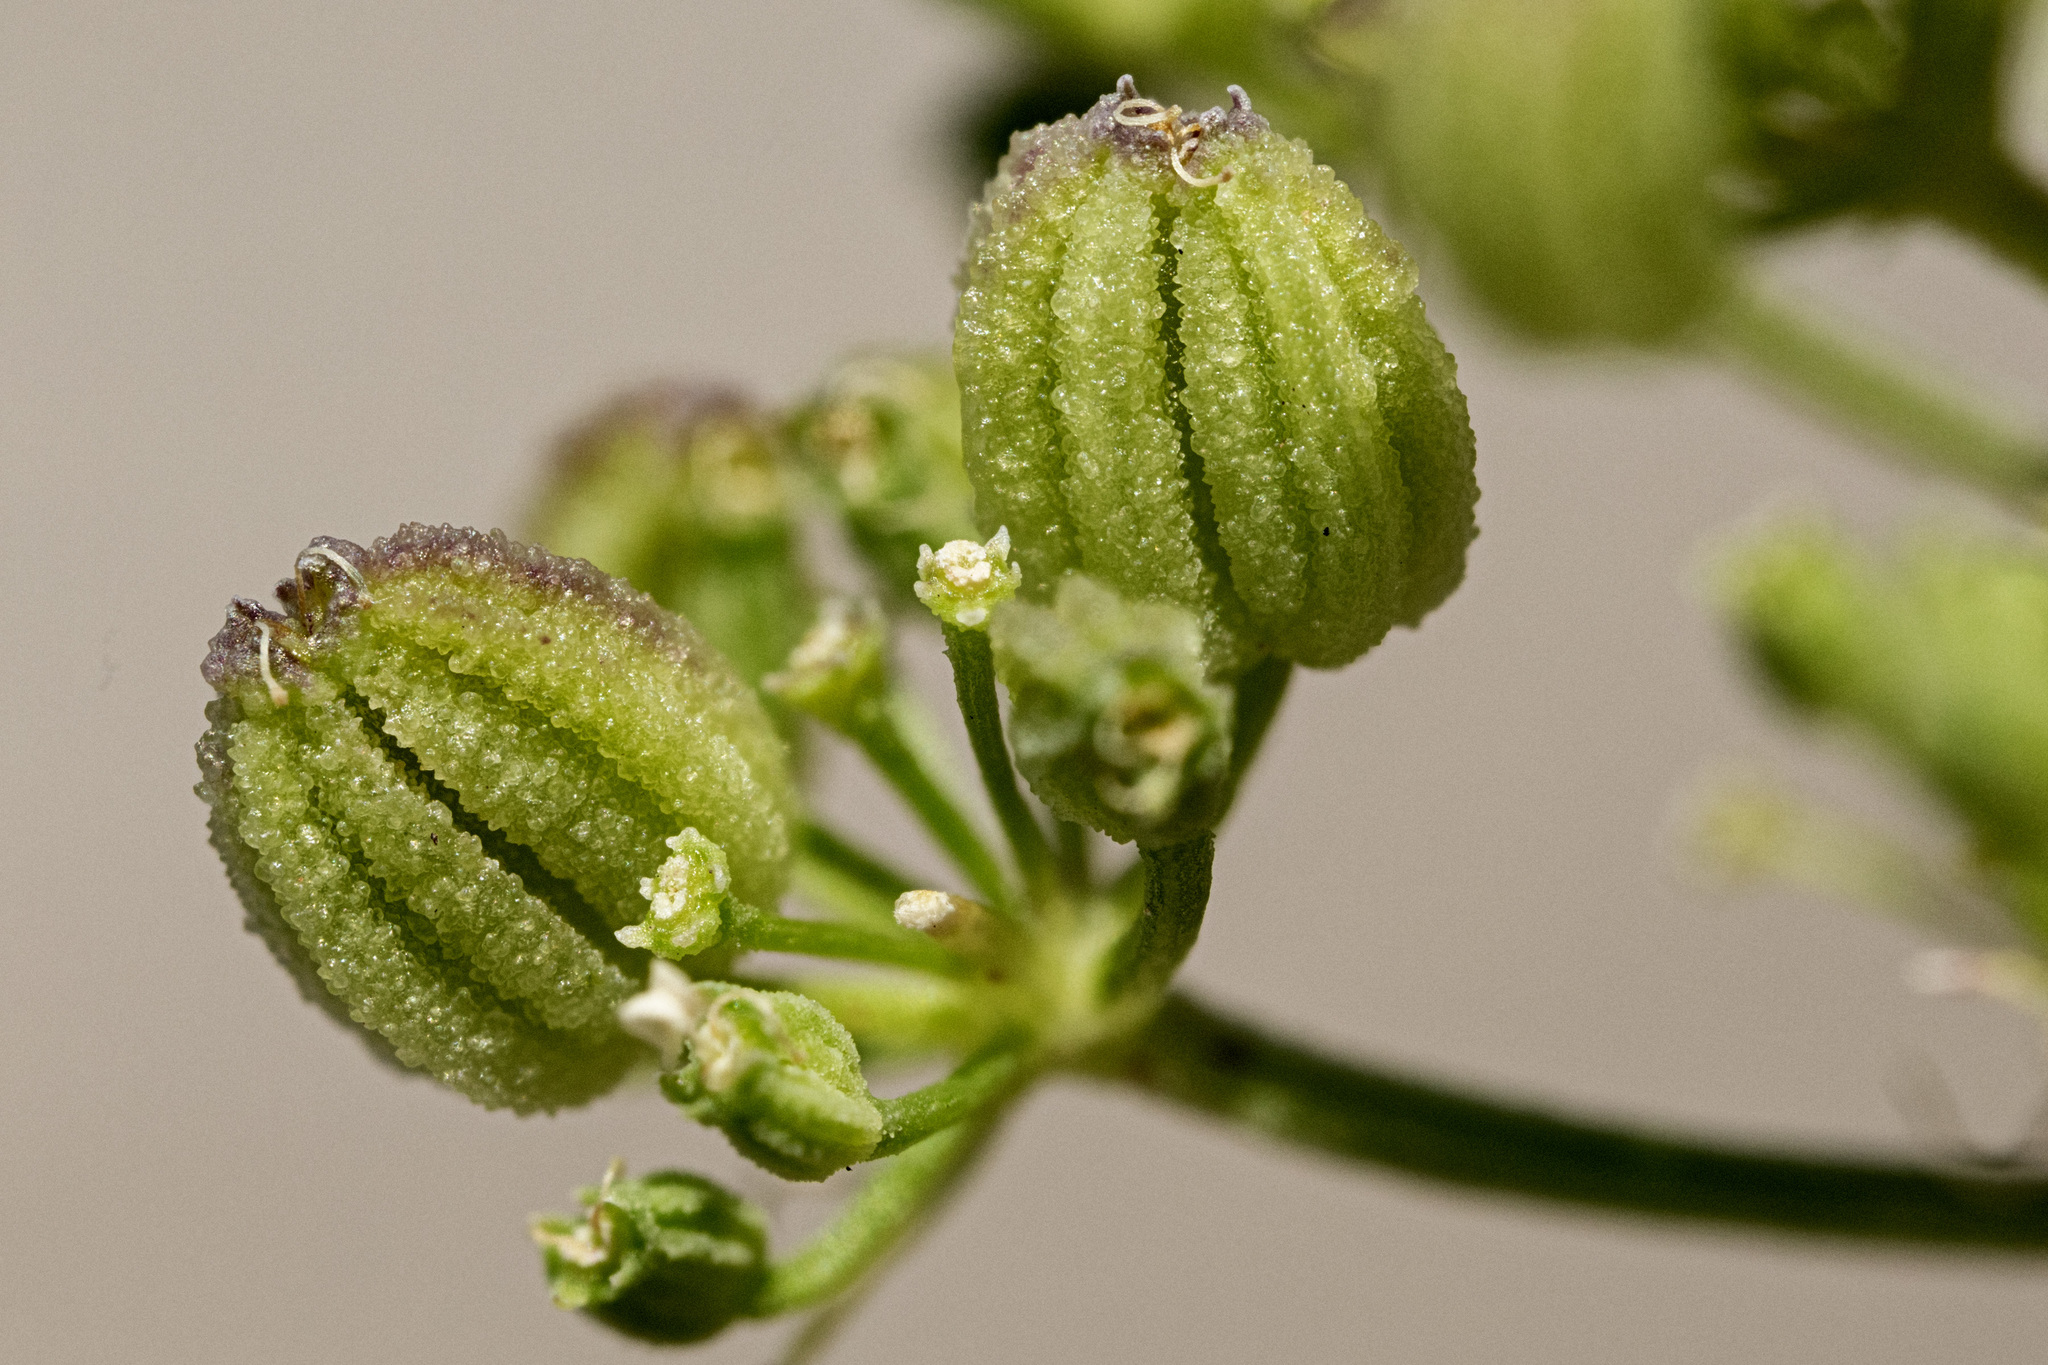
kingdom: Plantae
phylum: Tracheophyta
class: Magnoliopsida
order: Apiales
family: Apiaceae
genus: Harbouria
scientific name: Harbouria trachypleura
